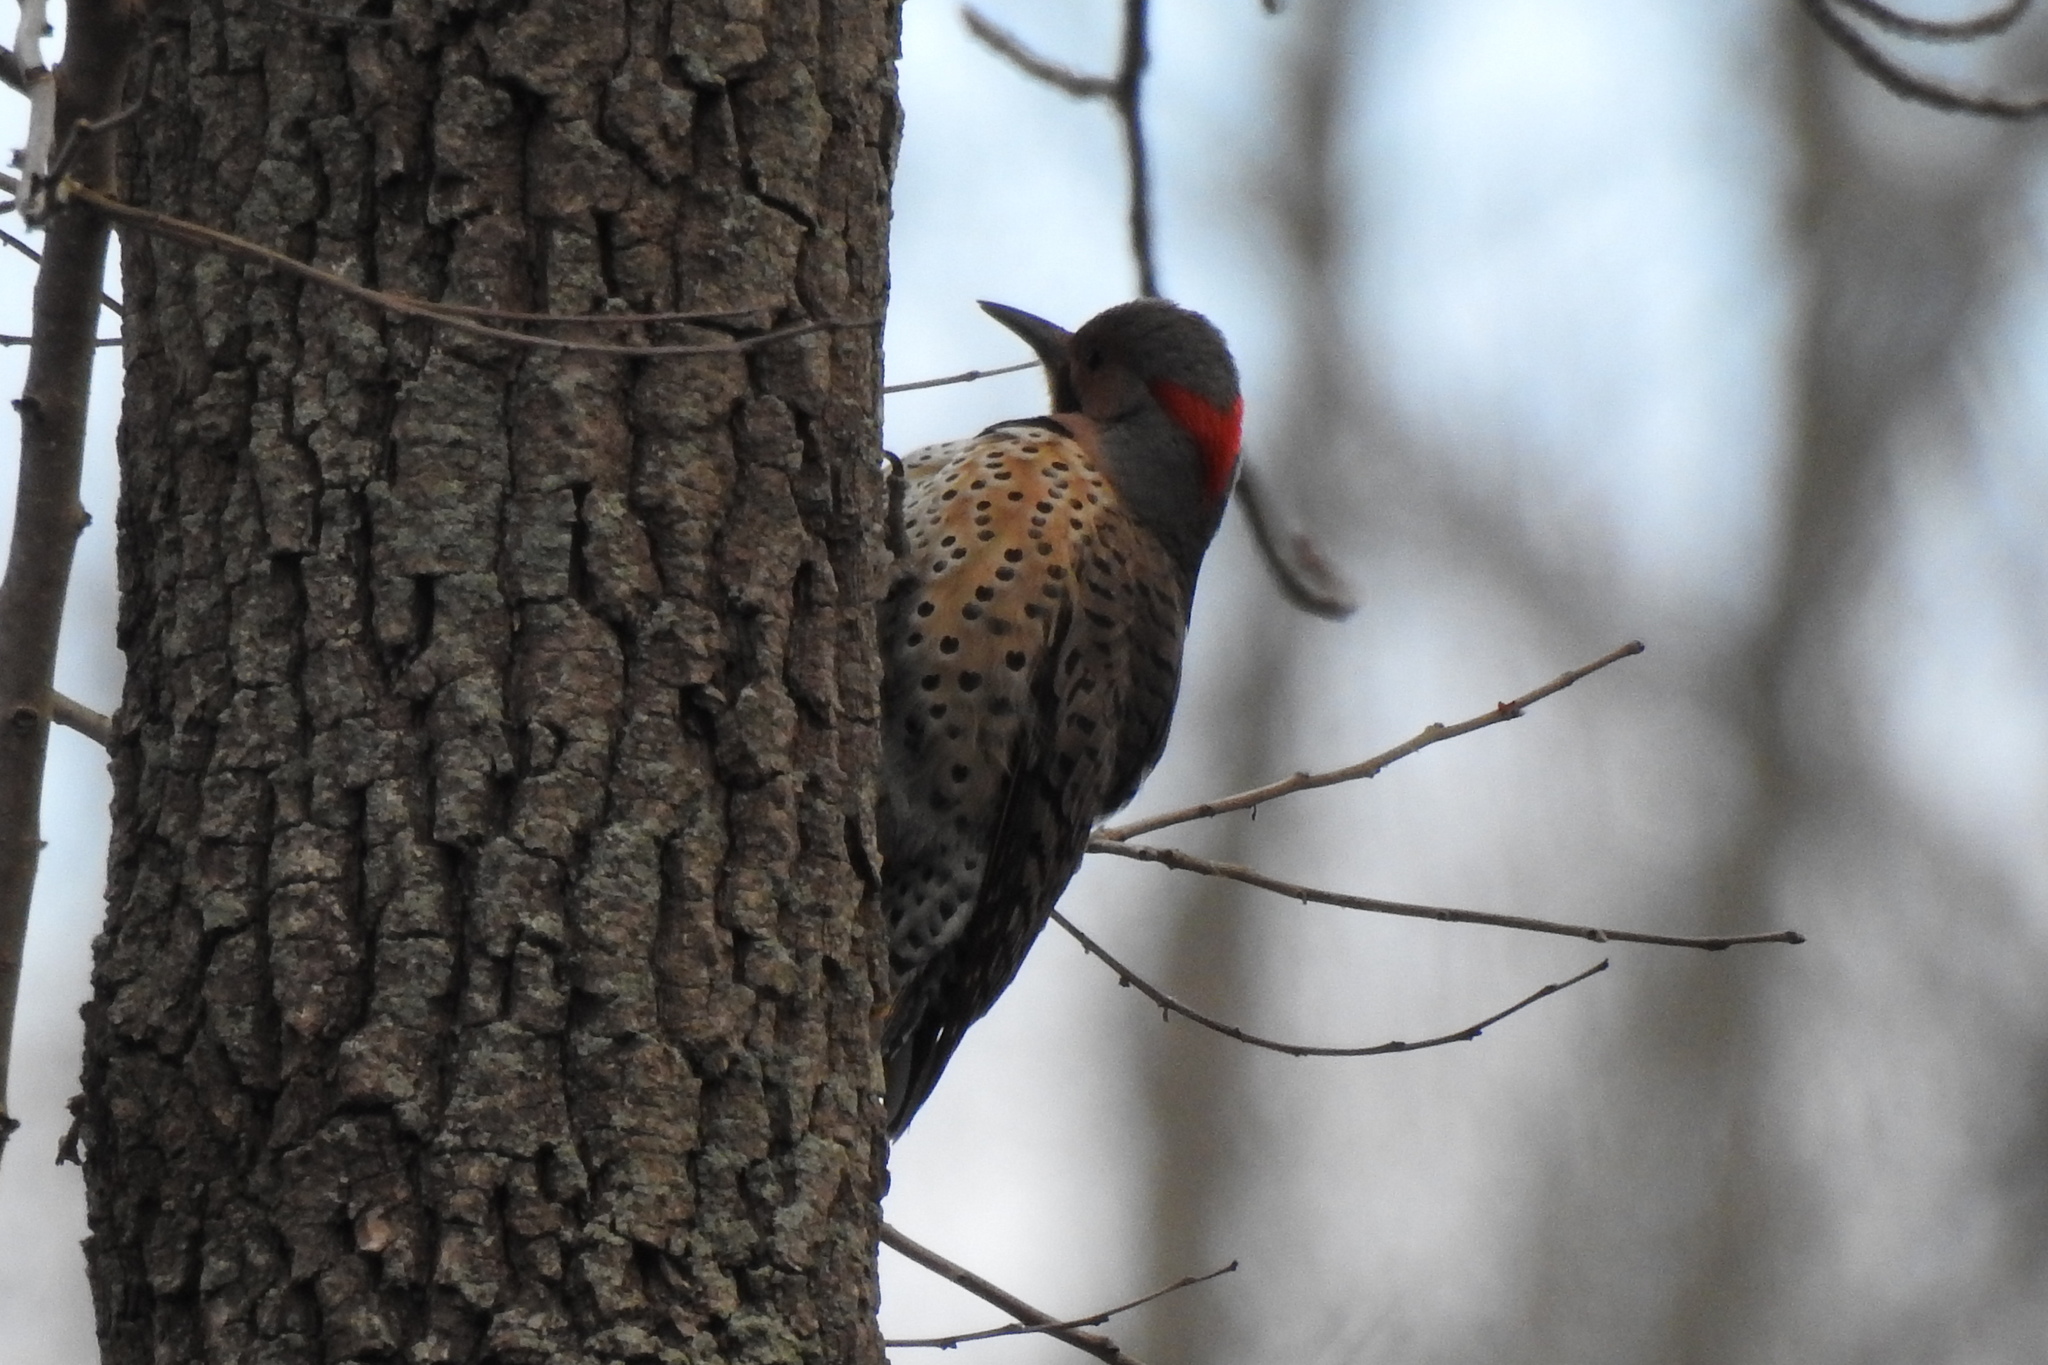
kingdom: Animalia
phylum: Chordata
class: Aves
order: Piciformes
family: Picidae
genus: Colaptes
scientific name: Colaptes auratus
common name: Northern flicker
